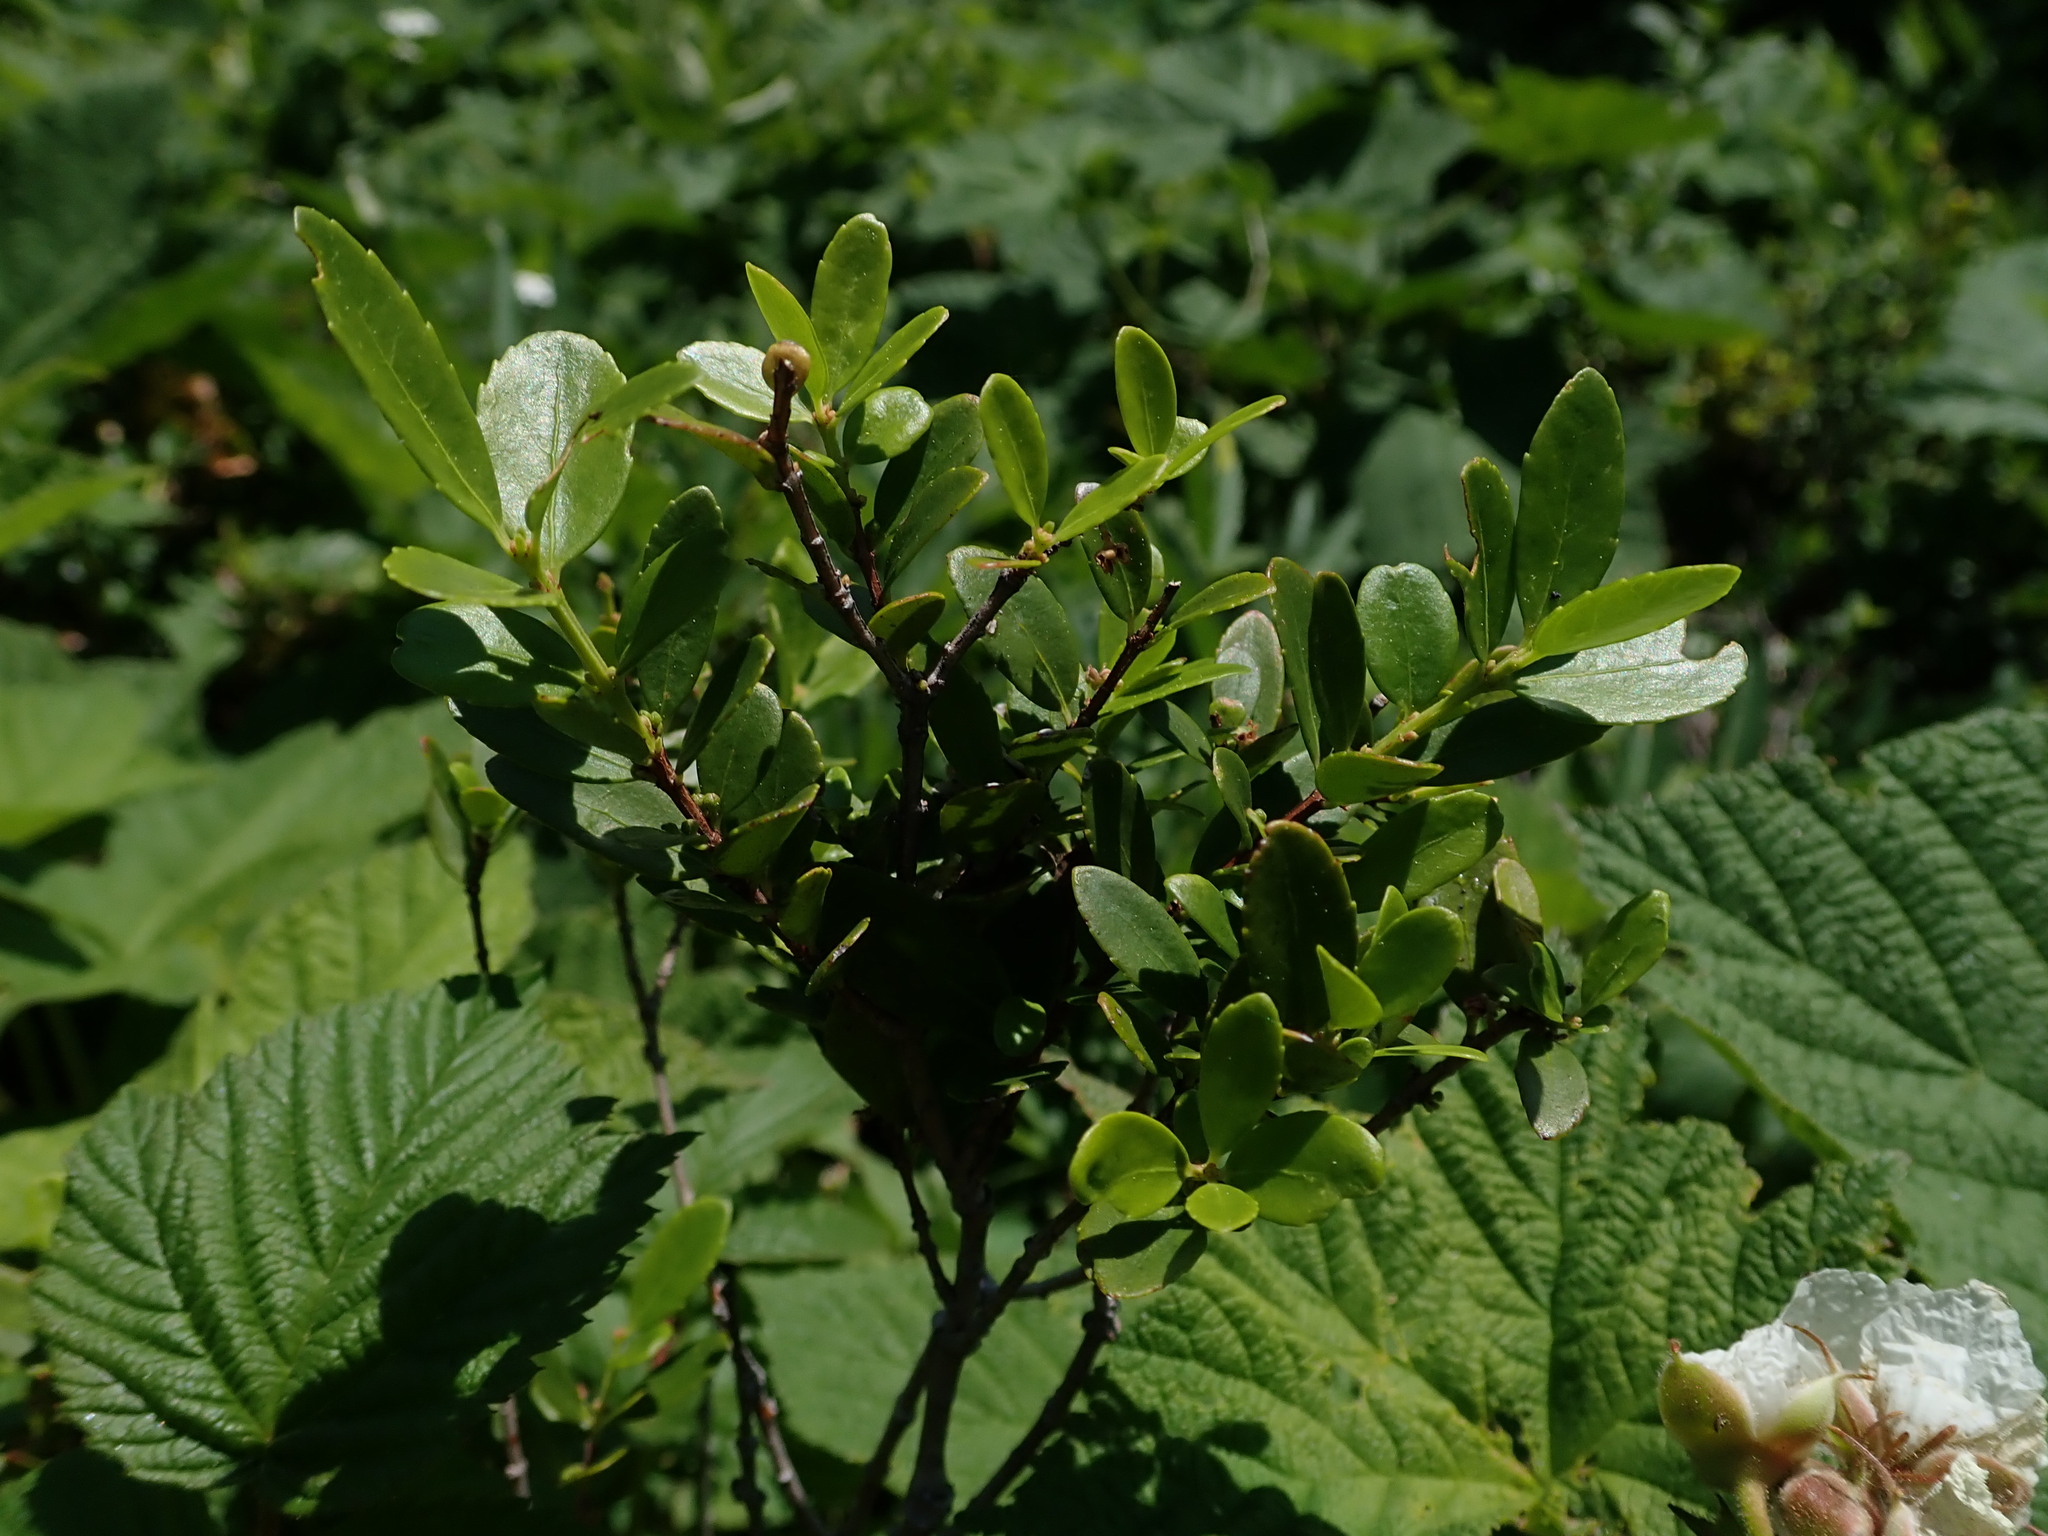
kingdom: Plantae
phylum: Tracheophyta
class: Magnoliopsida
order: Celastrales
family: Celastraceae
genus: Paxistima
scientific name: Paxistima myrsinites
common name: Mountain-lover
